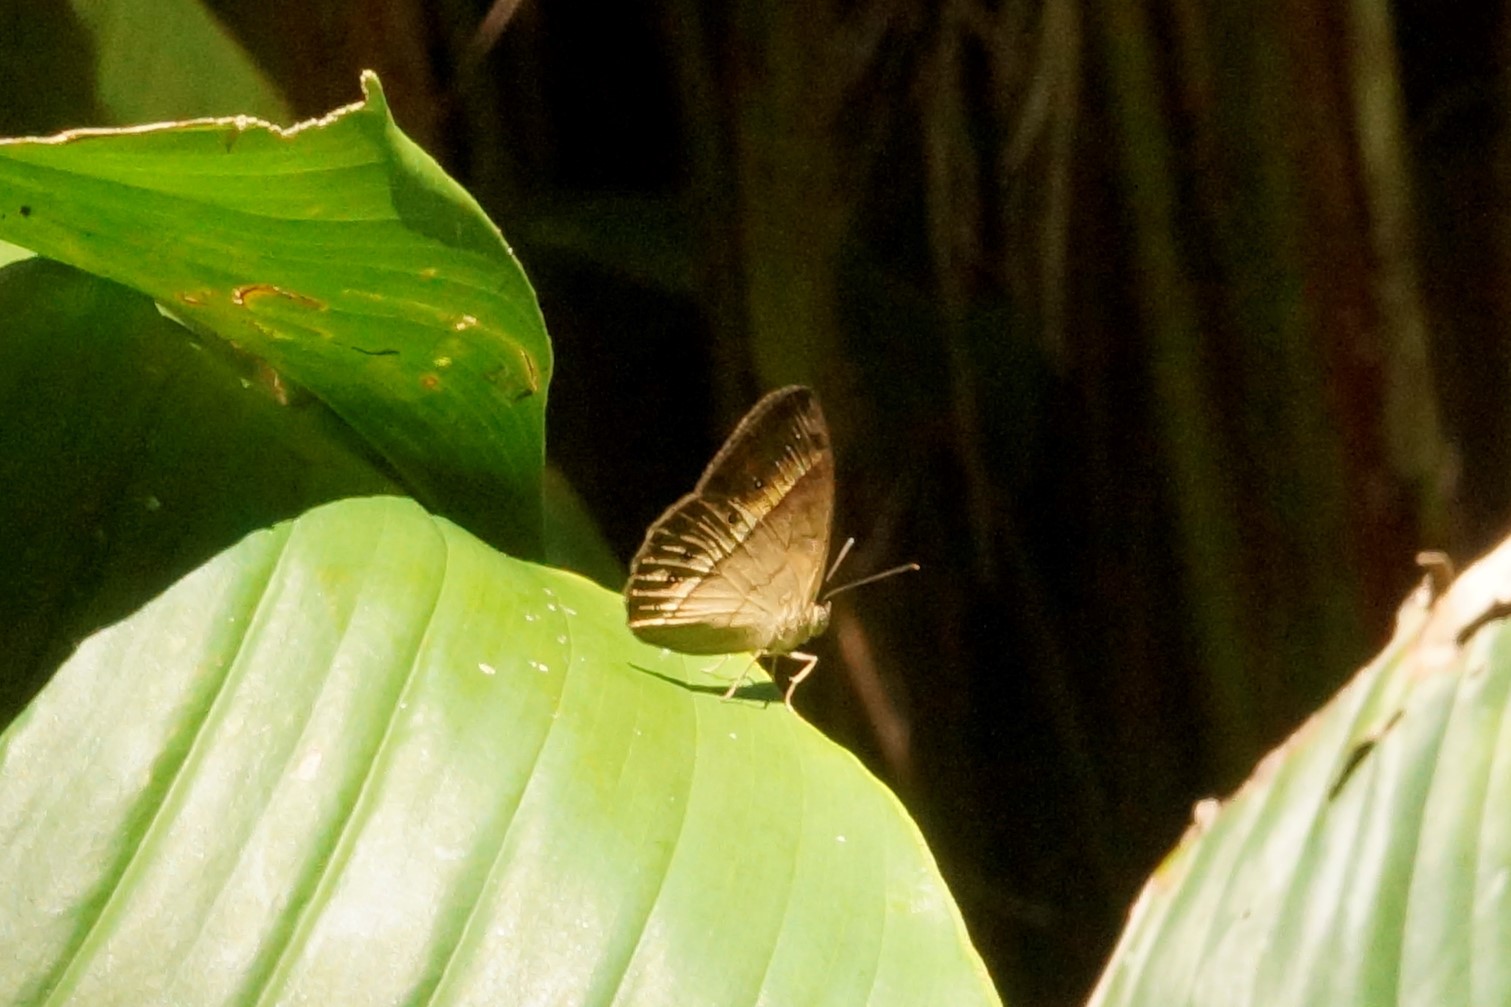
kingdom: Animalia
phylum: Arthropoda
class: Insecta
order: Lepidoptera
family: Nymphalidae
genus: Mycalesis
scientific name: Mycalesis terminus
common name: Orange bushbrown
